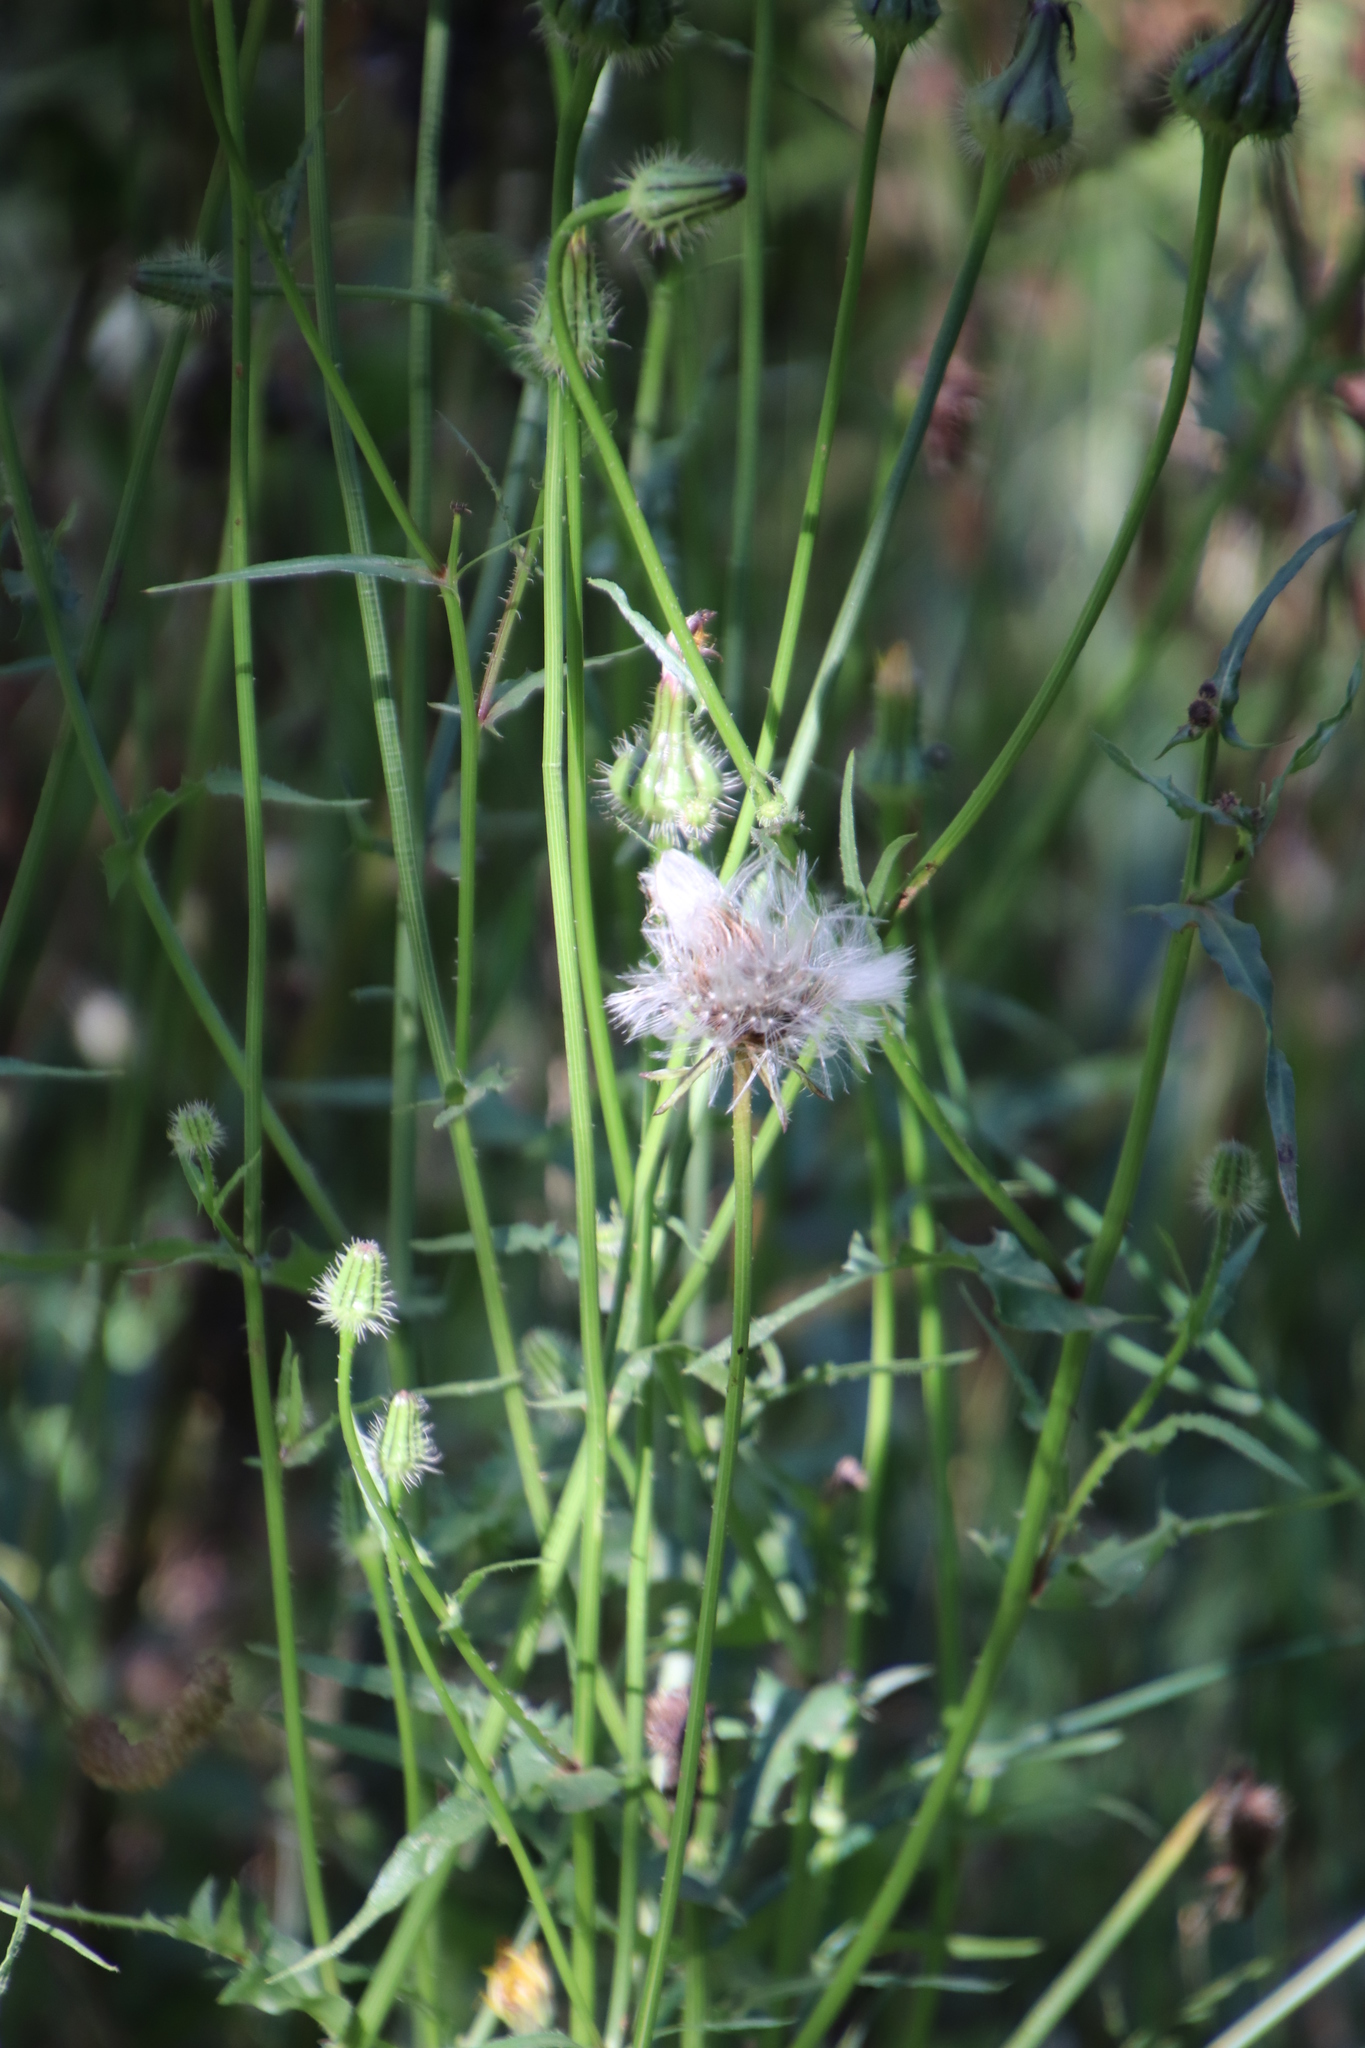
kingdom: Plantae
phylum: Tracheophyta
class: Magnoliopsida
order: Asterales
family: Asteraceae
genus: Urospermum
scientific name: Urospermum picroides
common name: False hawkbit
